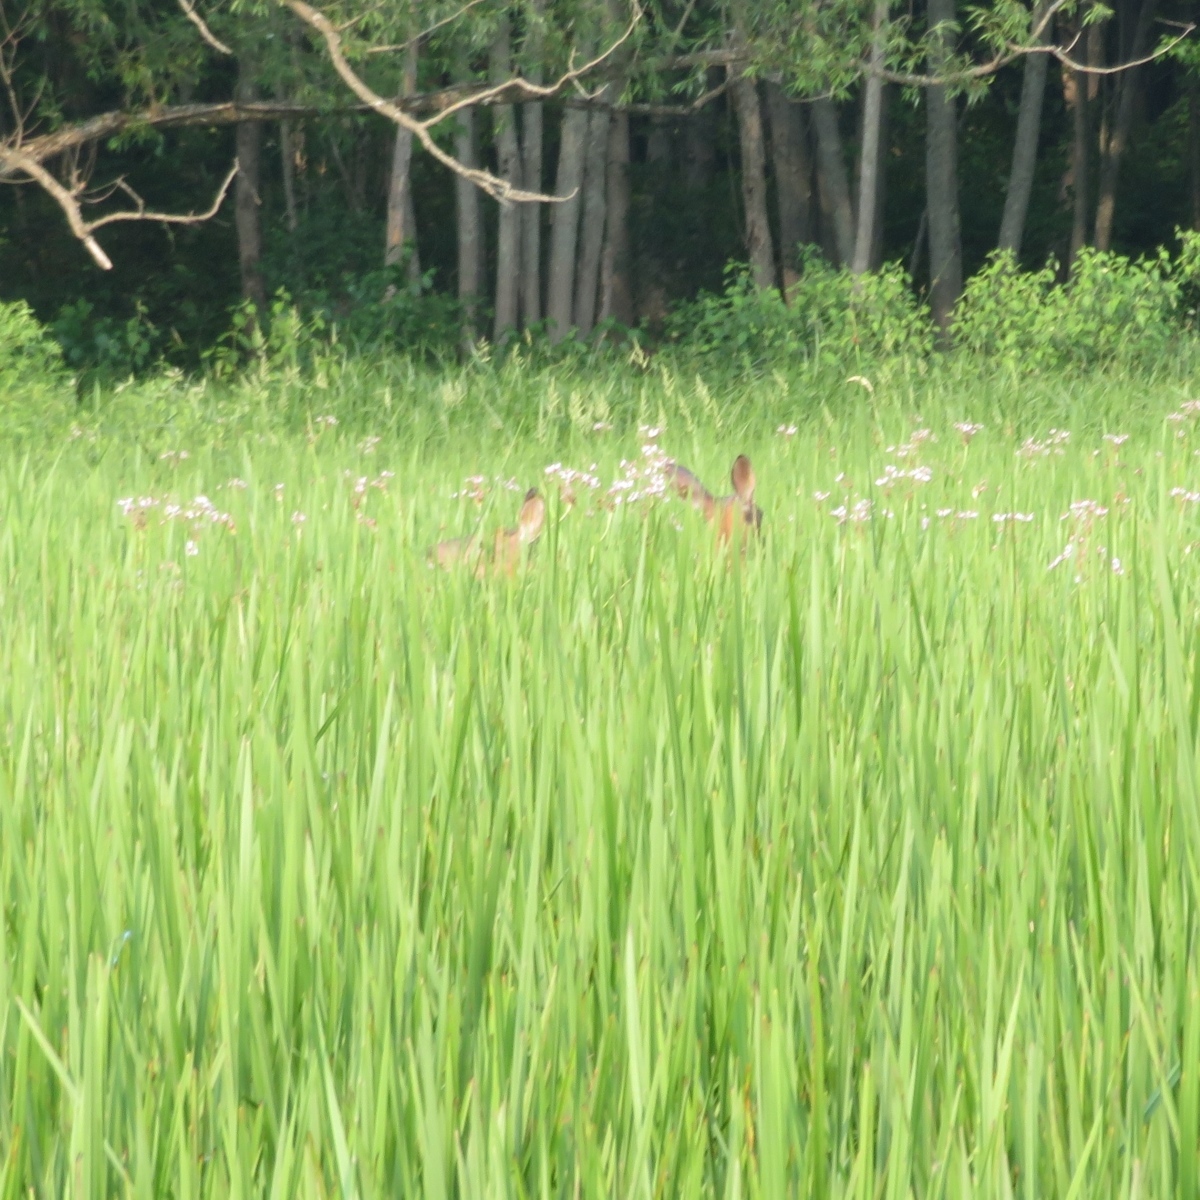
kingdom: Animalia
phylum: Chordata
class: Mammalia
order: Artiodactyla
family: Cervidae
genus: Odocoileus
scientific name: Odocoileus virginianus
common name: White-tailed deer
